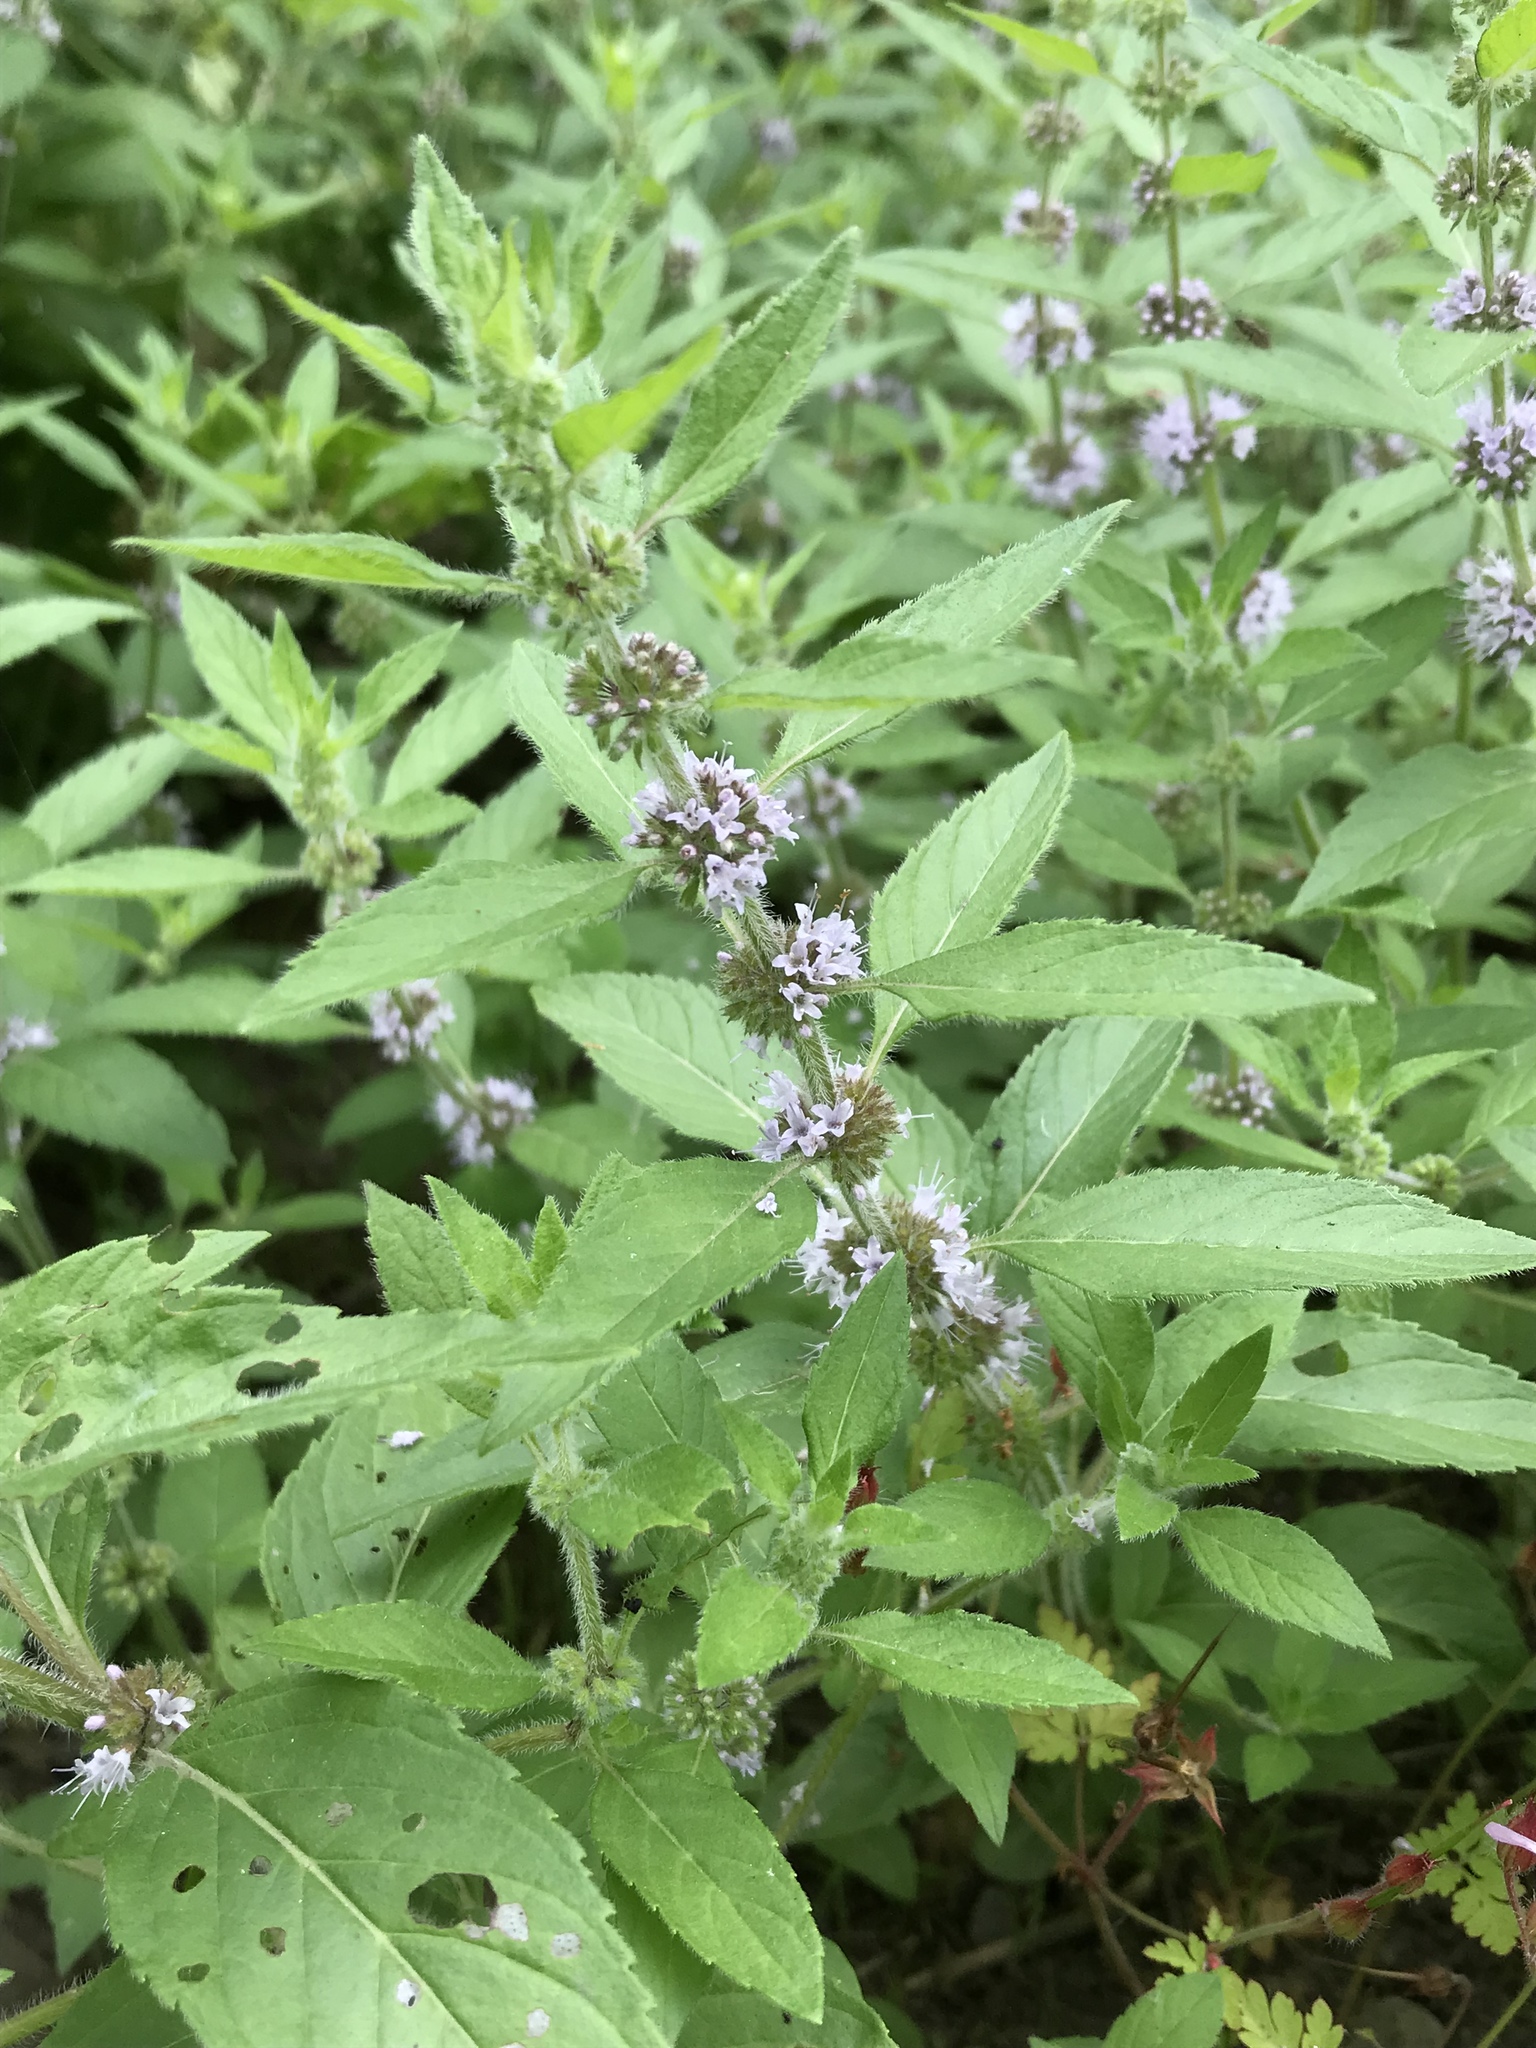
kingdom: Plantae
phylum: Tracheophyta
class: Magnoliopsida
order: Lamiales
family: Lamiaceae
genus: Mentha
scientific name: Mentha canadensis
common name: American corn mint
